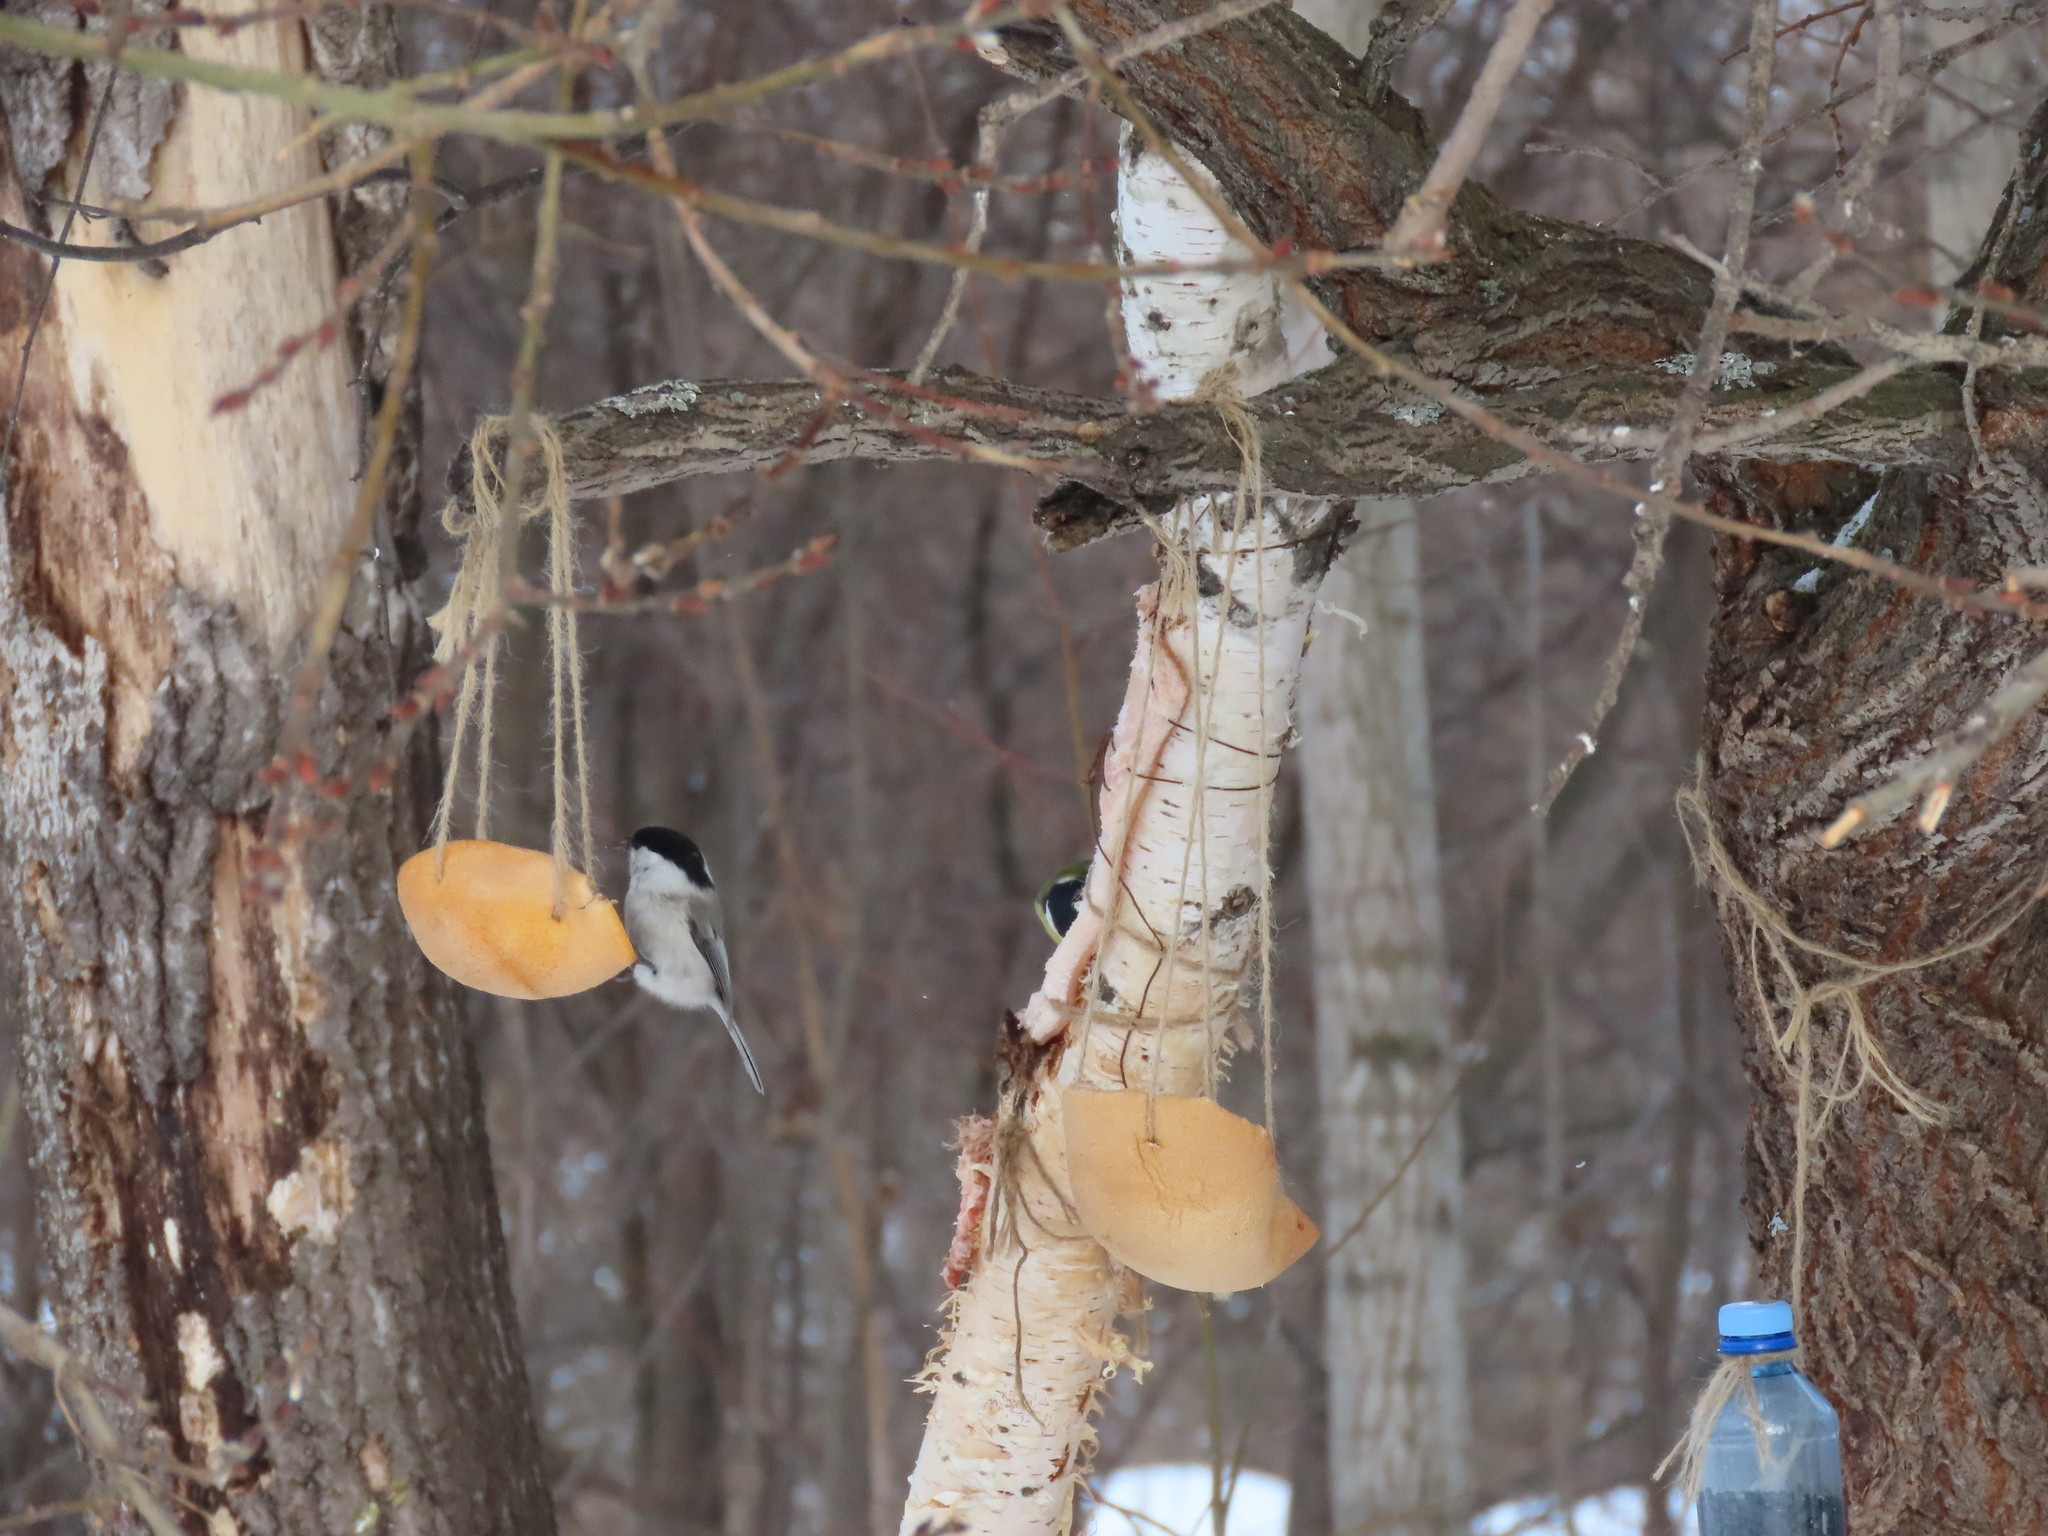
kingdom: Animalia
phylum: Chordata
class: Aves
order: Passeriformes
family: Paridae
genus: Poecile
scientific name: Poecile montanus
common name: Willow tit
